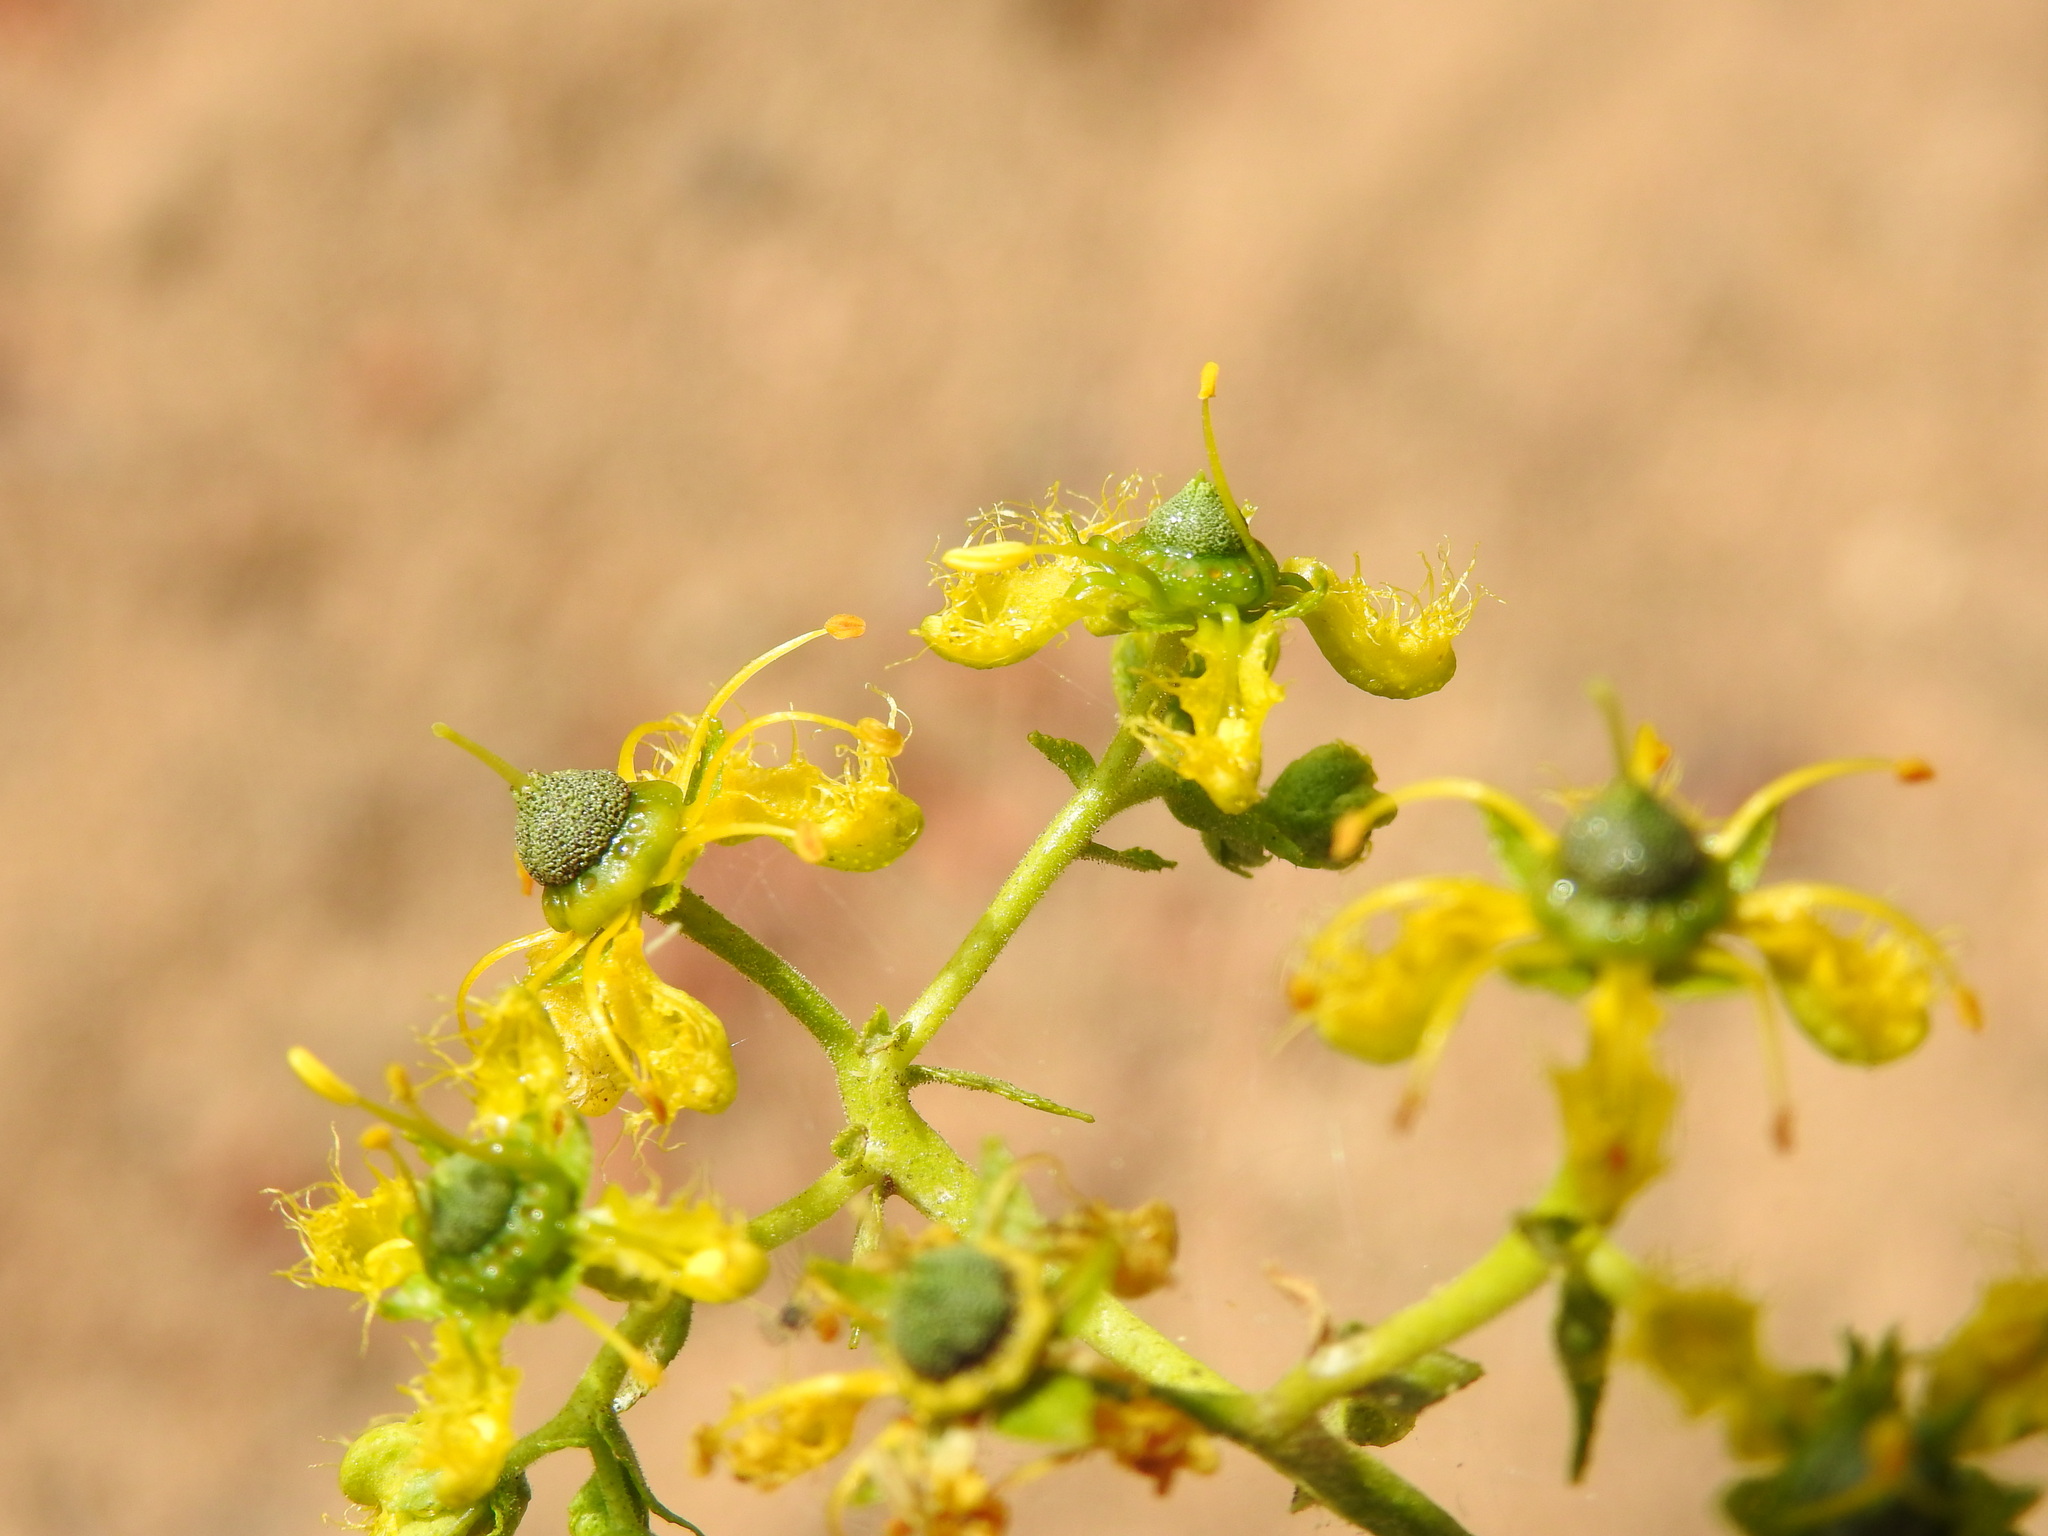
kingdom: Plantae
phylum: Tracheophyta
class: Magnoliopsida
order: Sapindales
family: Rutaceae
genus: Ruta
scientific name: Ruta angustifolia
